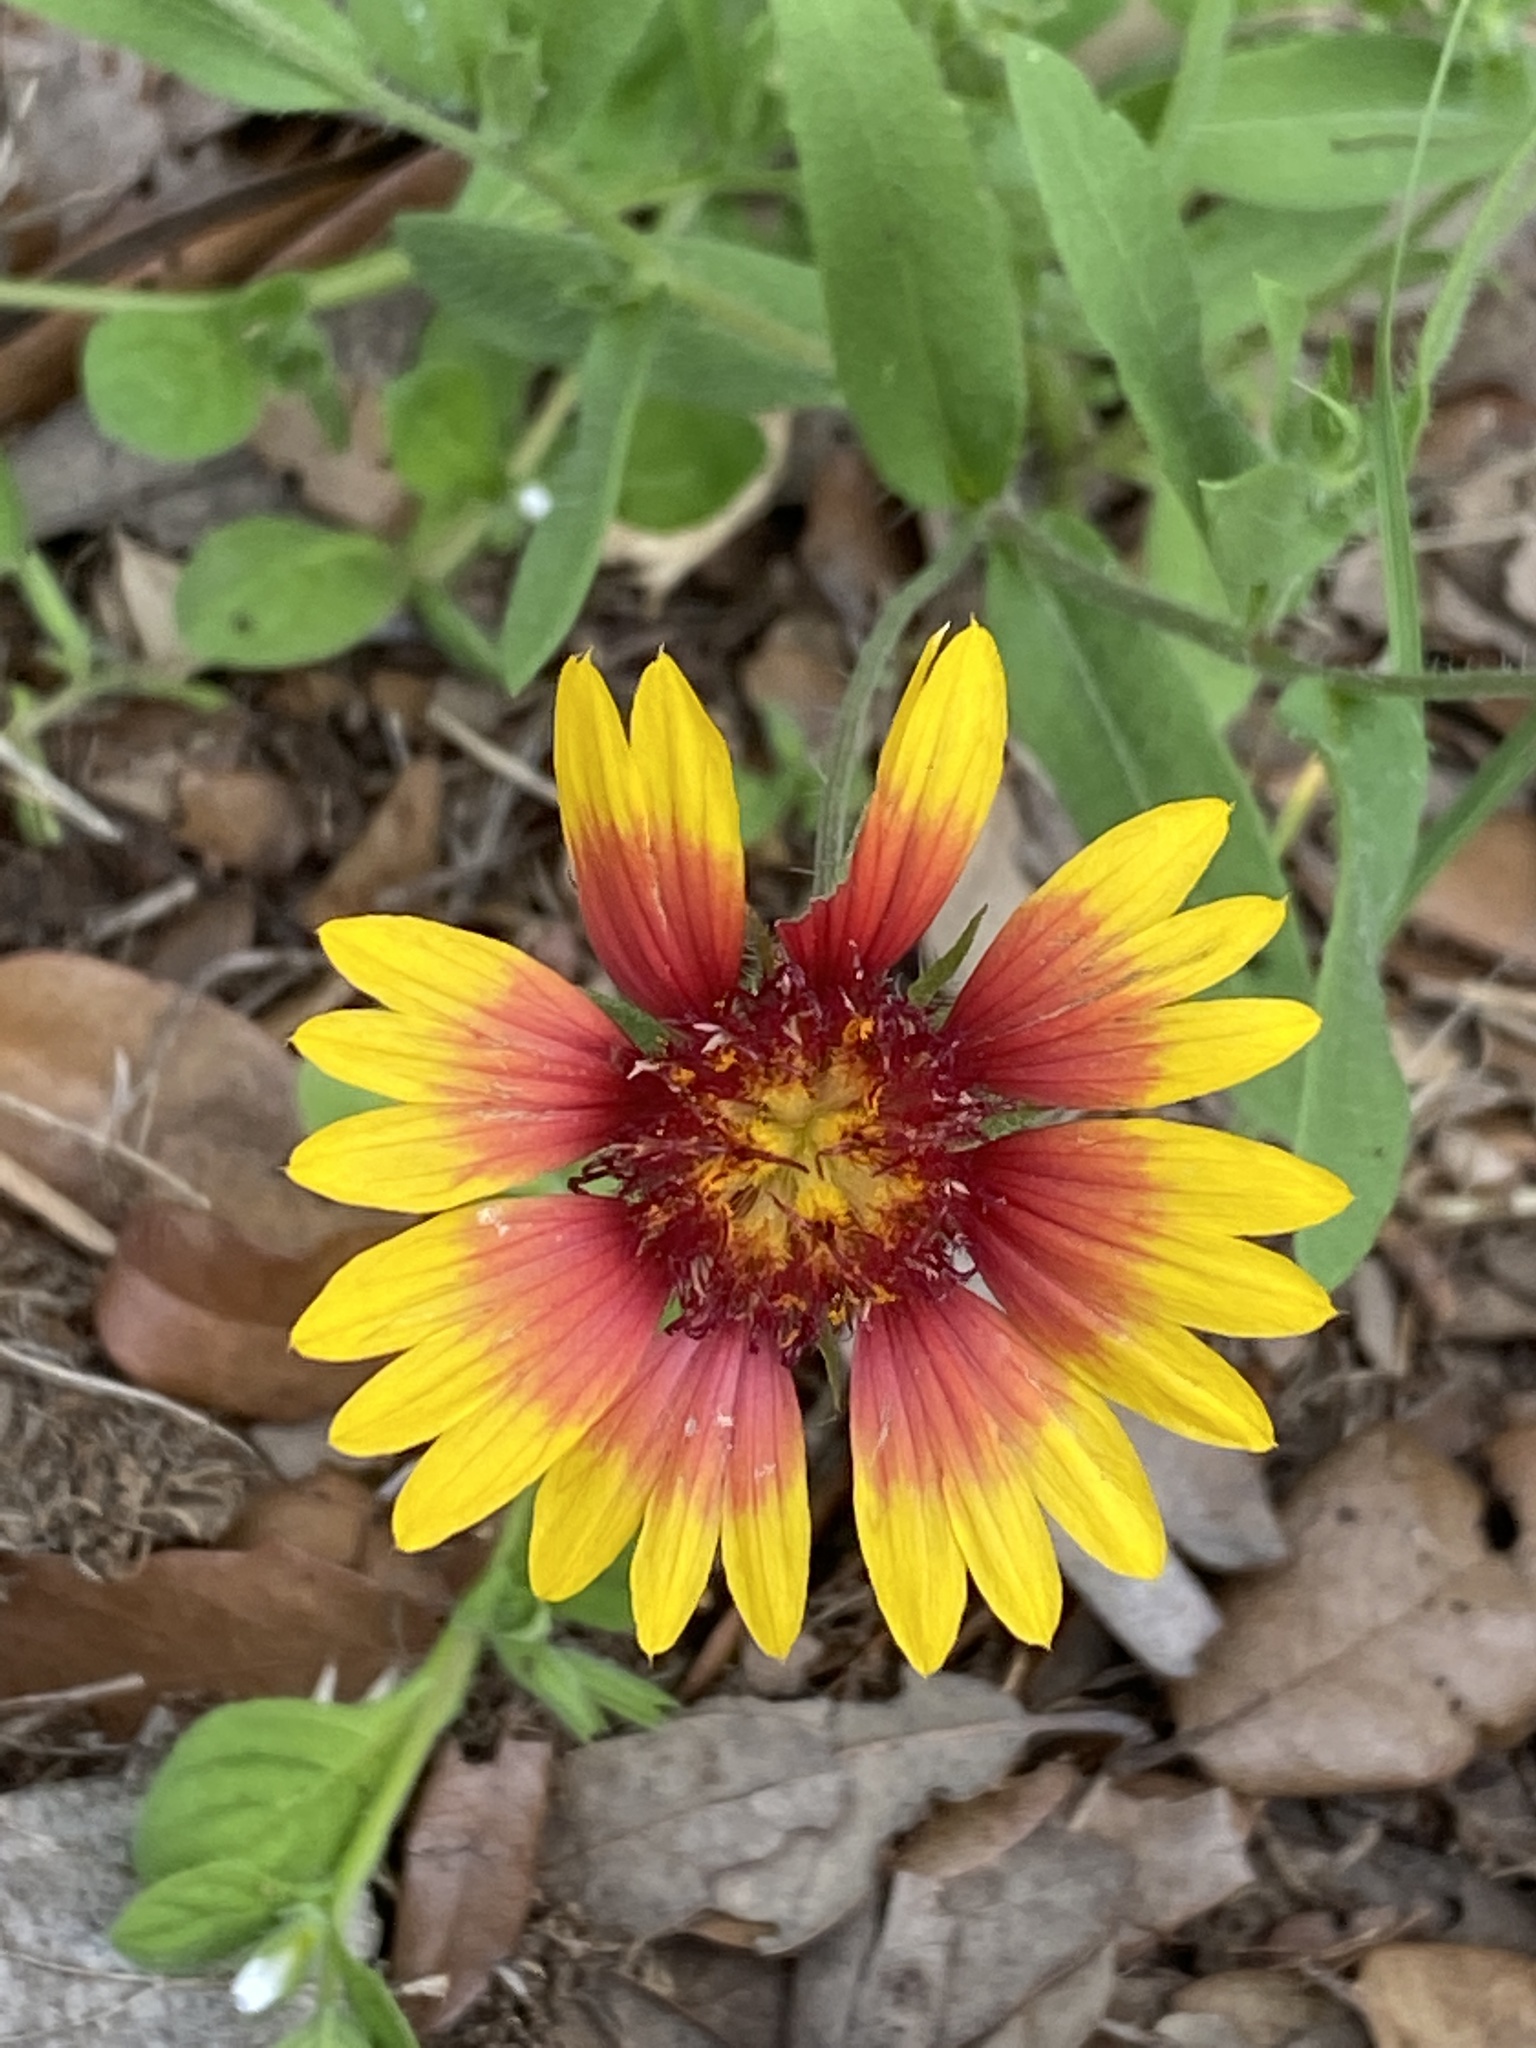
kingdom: Plantae
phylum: Tracheophyta
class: Magnoliopsida
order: Asterales
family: Asteraceae
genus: Gaillardia
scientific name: Gaillardia pulchella
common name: Firewheel
